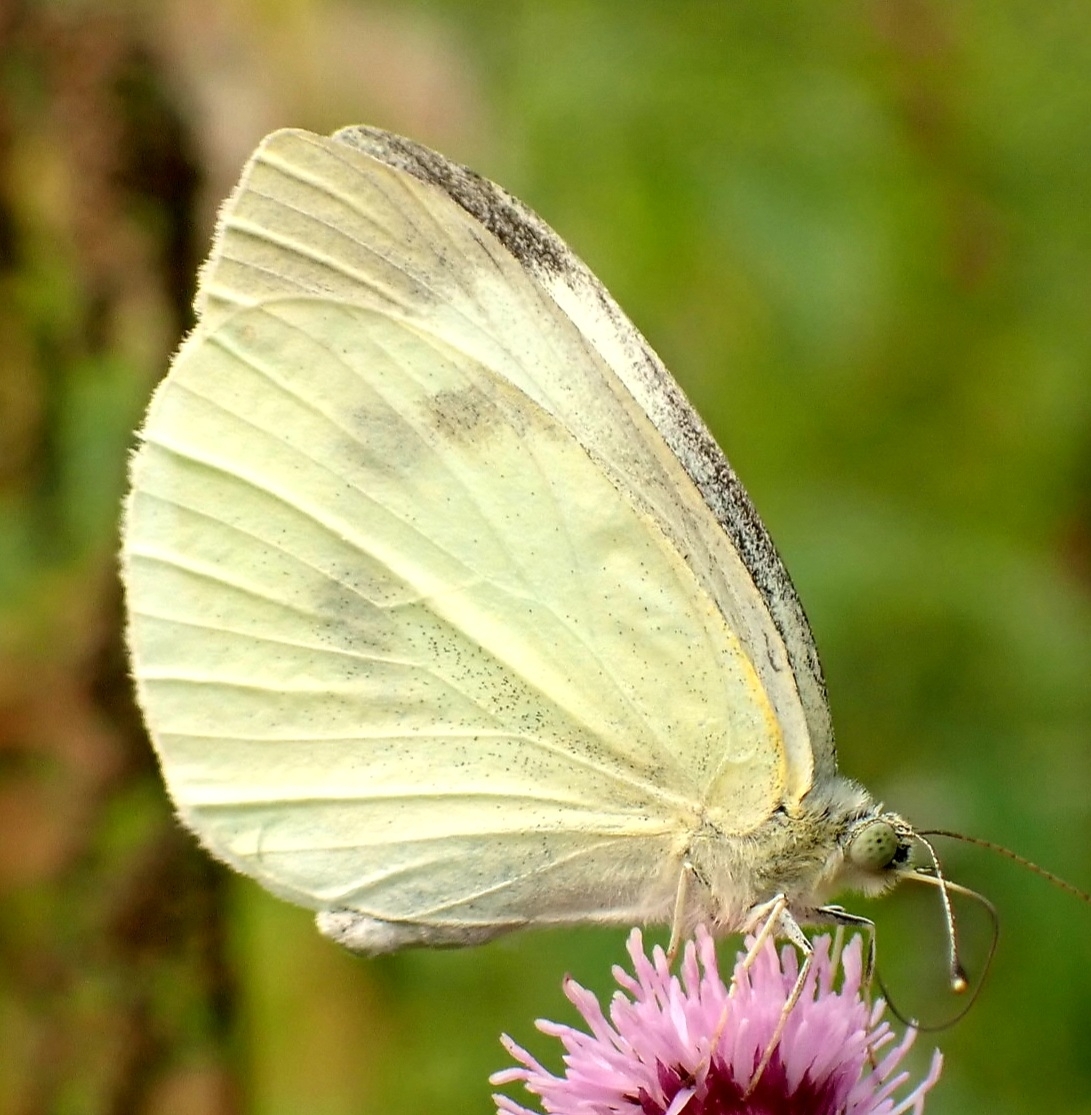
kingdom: Animalia
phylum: Arthropoda
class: Insecta
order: Lepidoptera
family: Pieridae
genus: Pieris
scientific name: Pieris rapae
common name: Small white
